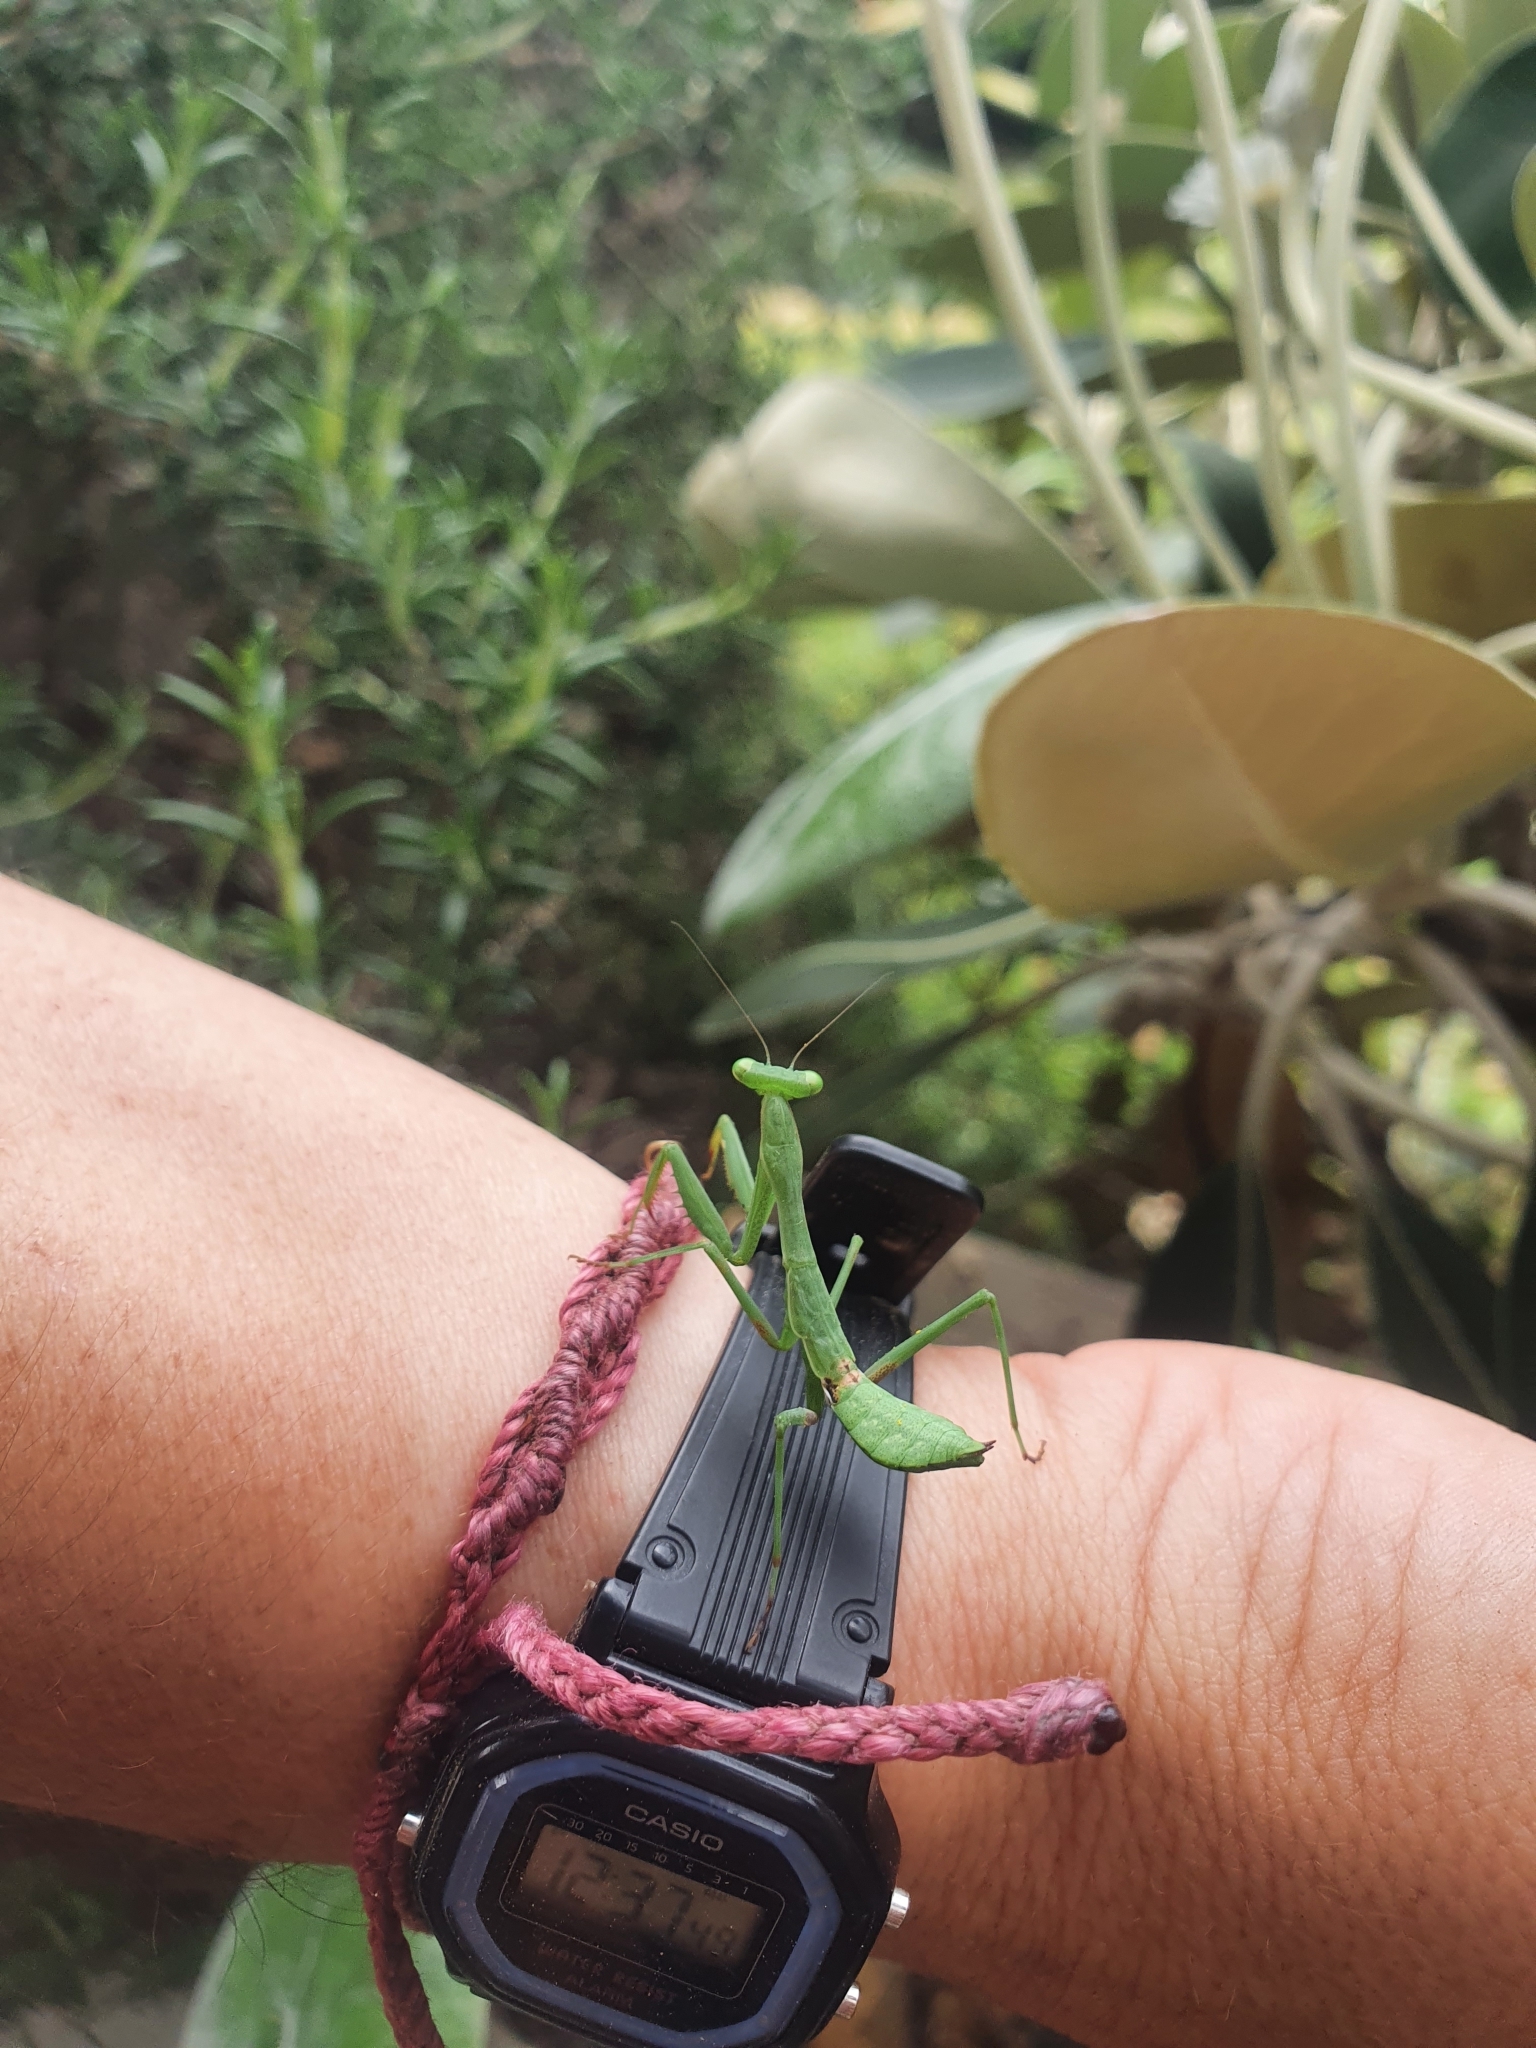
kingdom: Animalia
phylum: Arthropoda
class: Insecta
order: Mantodea
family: Miomantidae
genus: Miomantis
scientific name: Miomantis caffra
